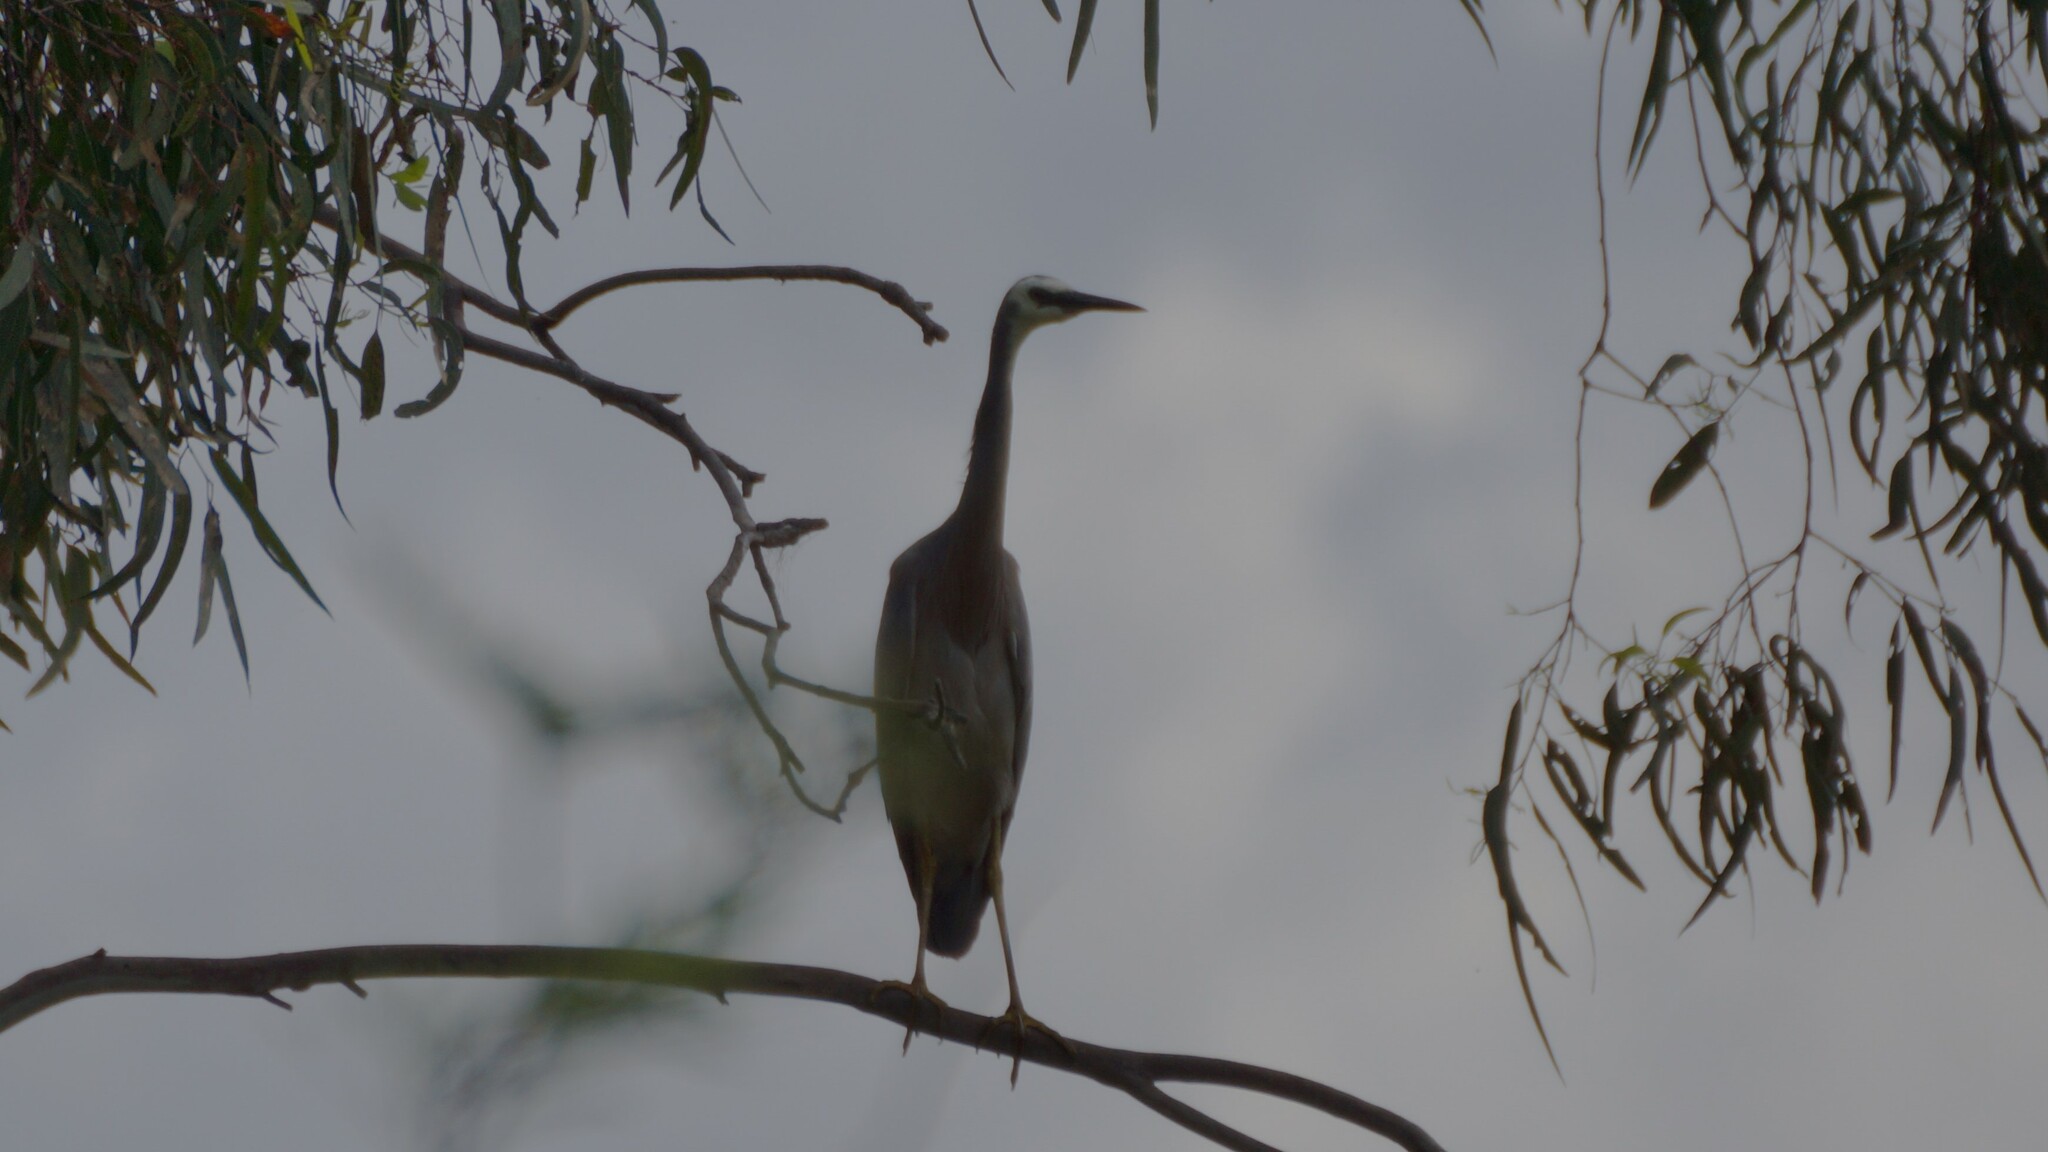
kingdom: Animalia
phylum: Chordata
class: Aves
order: Pelecaniformes
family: Ardeidae
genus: Egretta
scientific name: Egretta novaehollandiae
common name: White-faced heron
